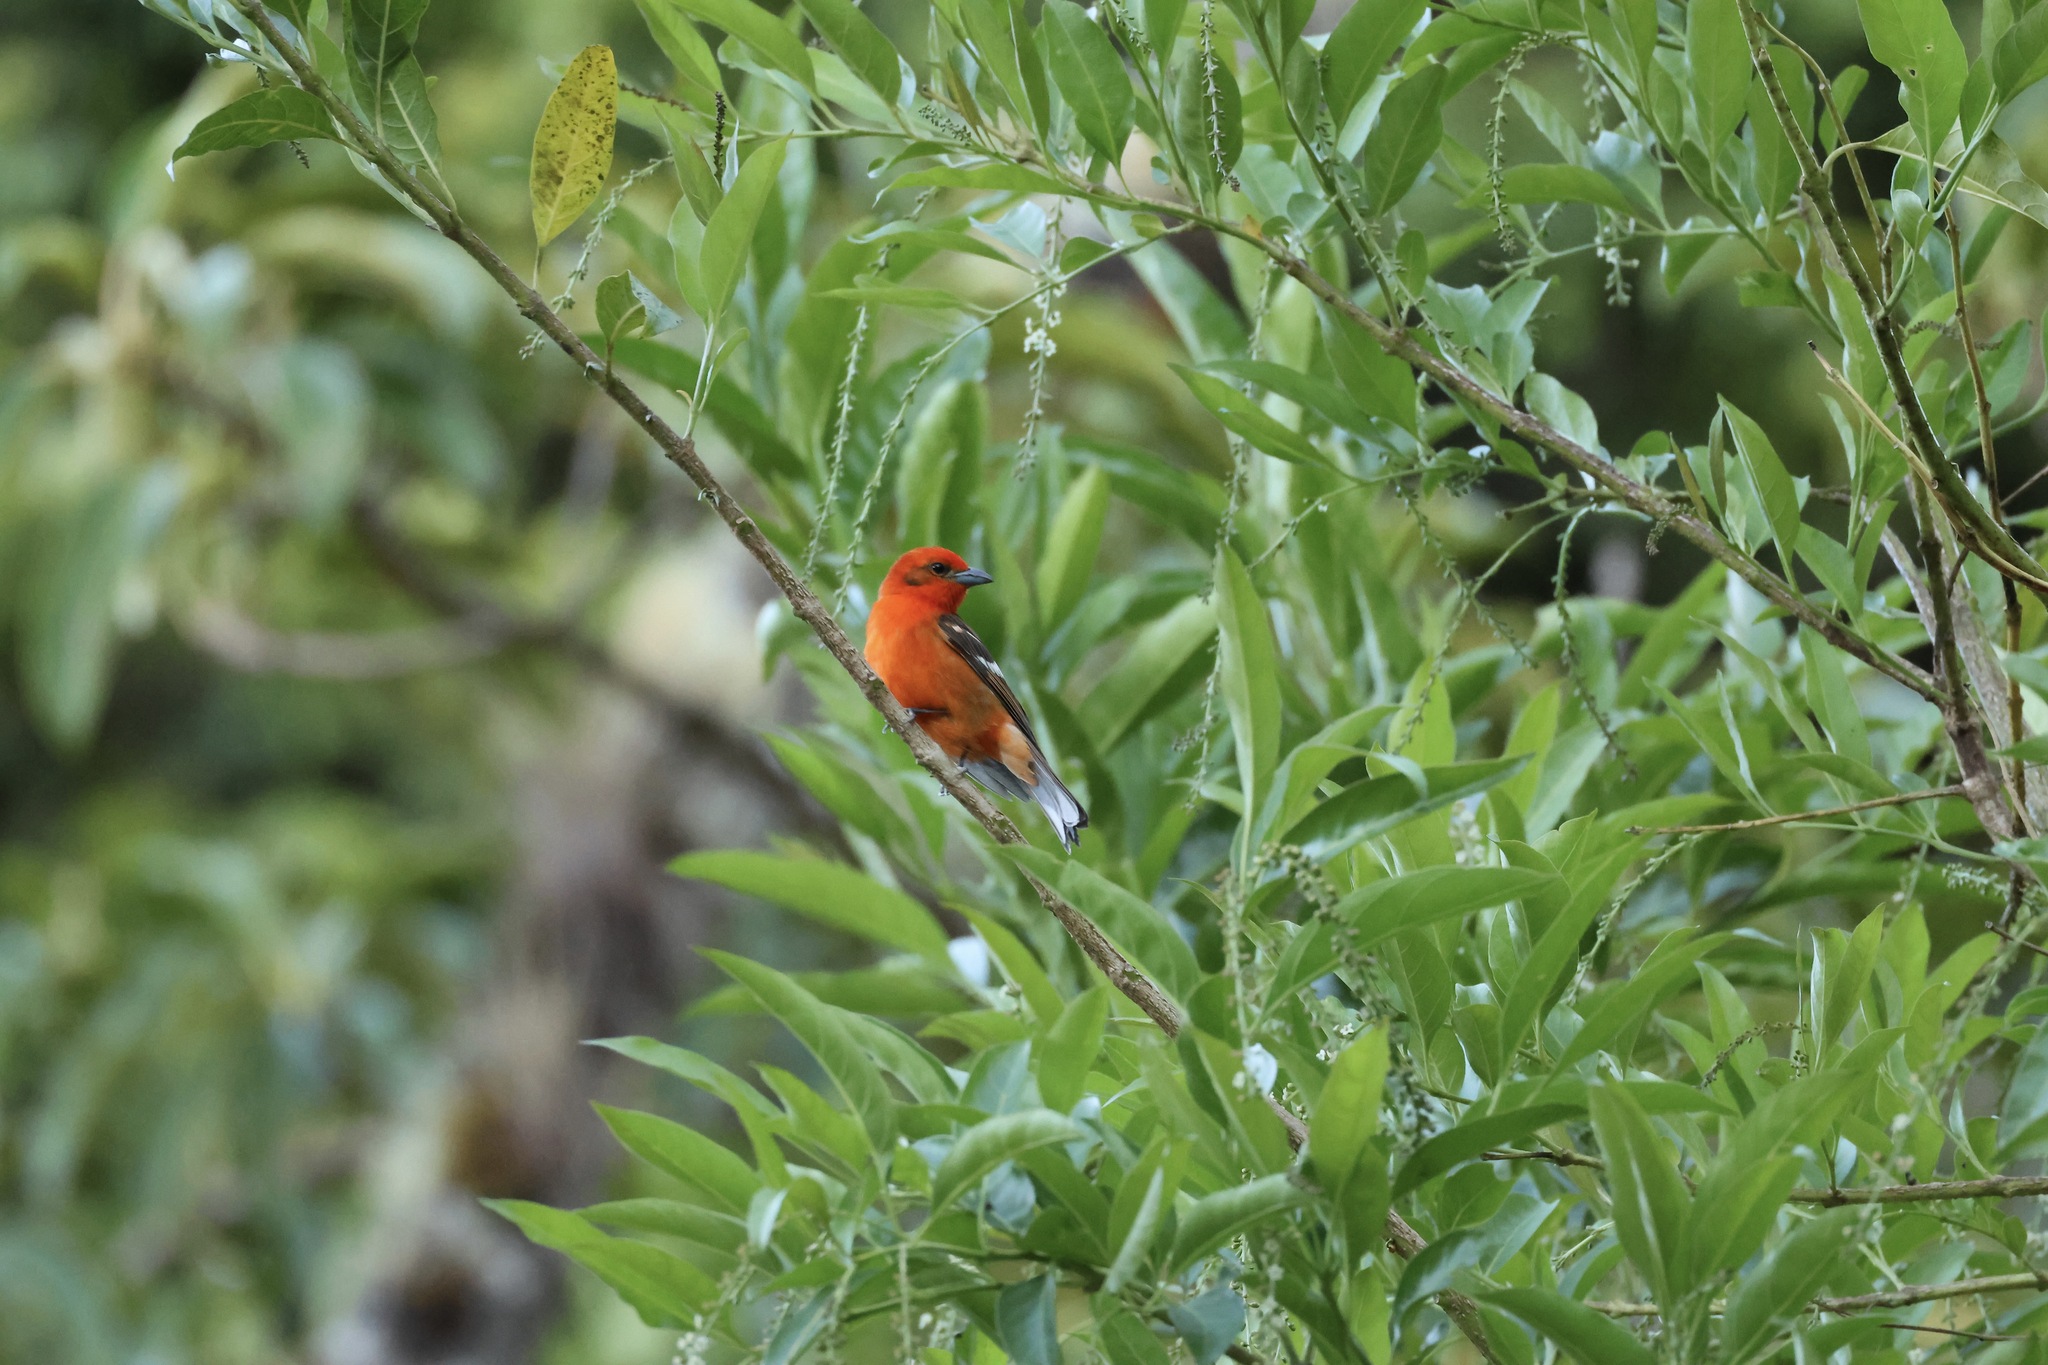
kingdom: Animalia
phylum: Chordata
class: Aves
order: Passeriformes
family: Cardinalidae
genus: Piranga
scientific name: Piranga bidentata
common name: Flame-colored tanager
